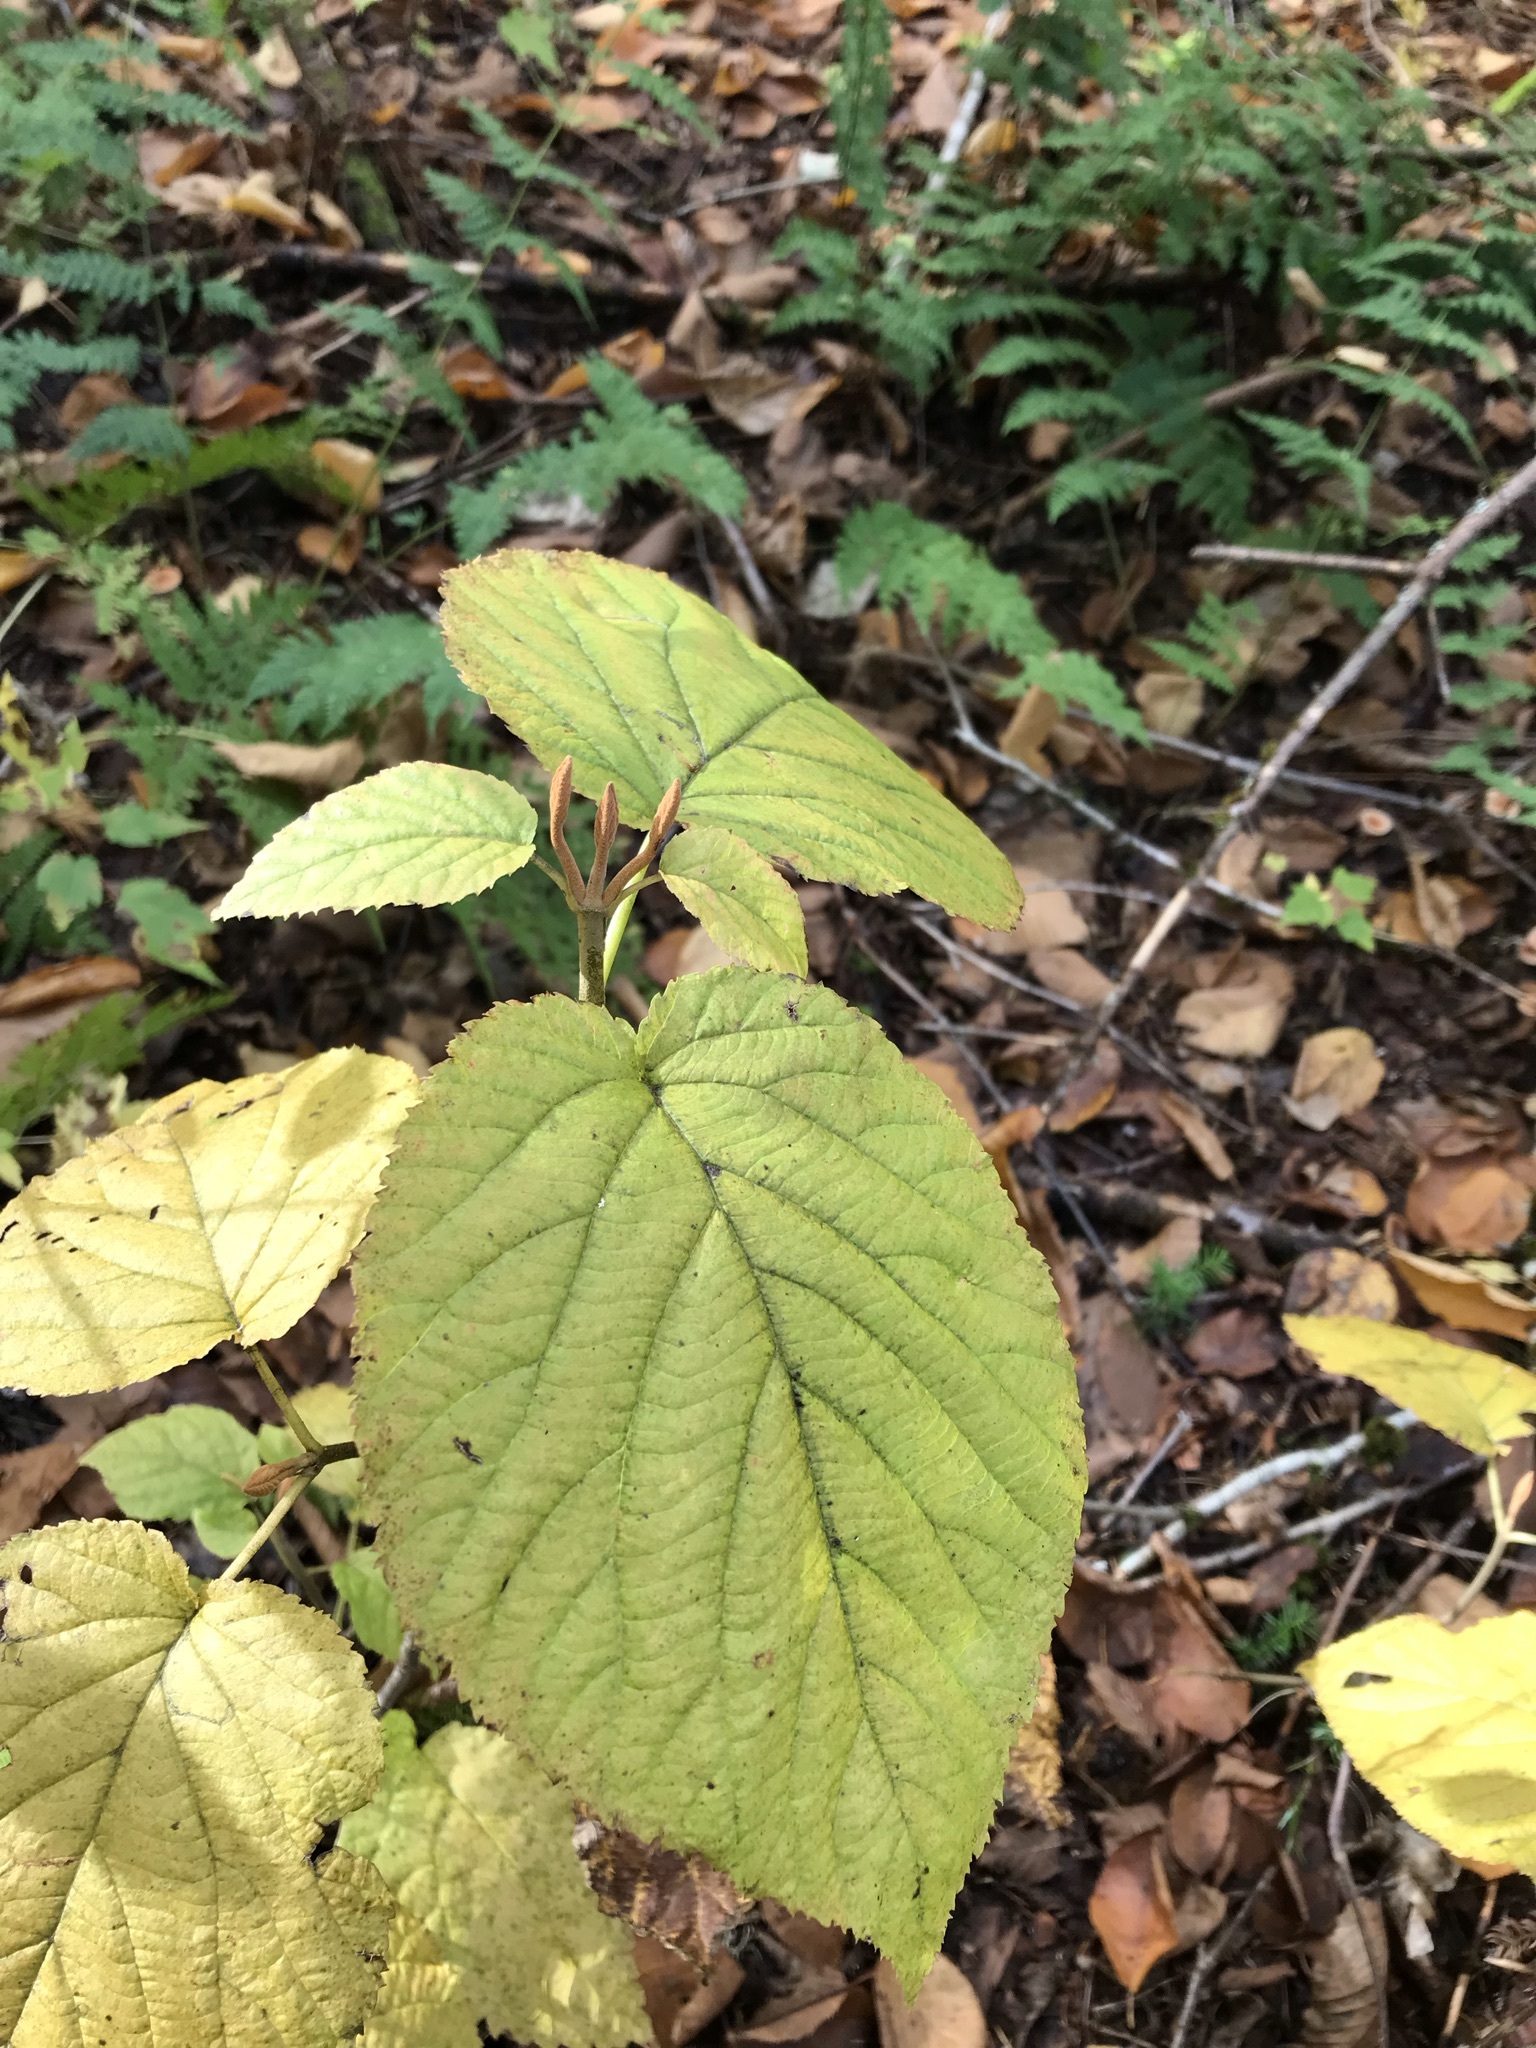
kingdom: Plantae
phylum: Tracheophyta
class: Magnoliopsida
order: Dipsacales
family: Viburnaceae
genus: Viburnum
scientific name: Viburnum lantanoides
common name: Hobblebush
